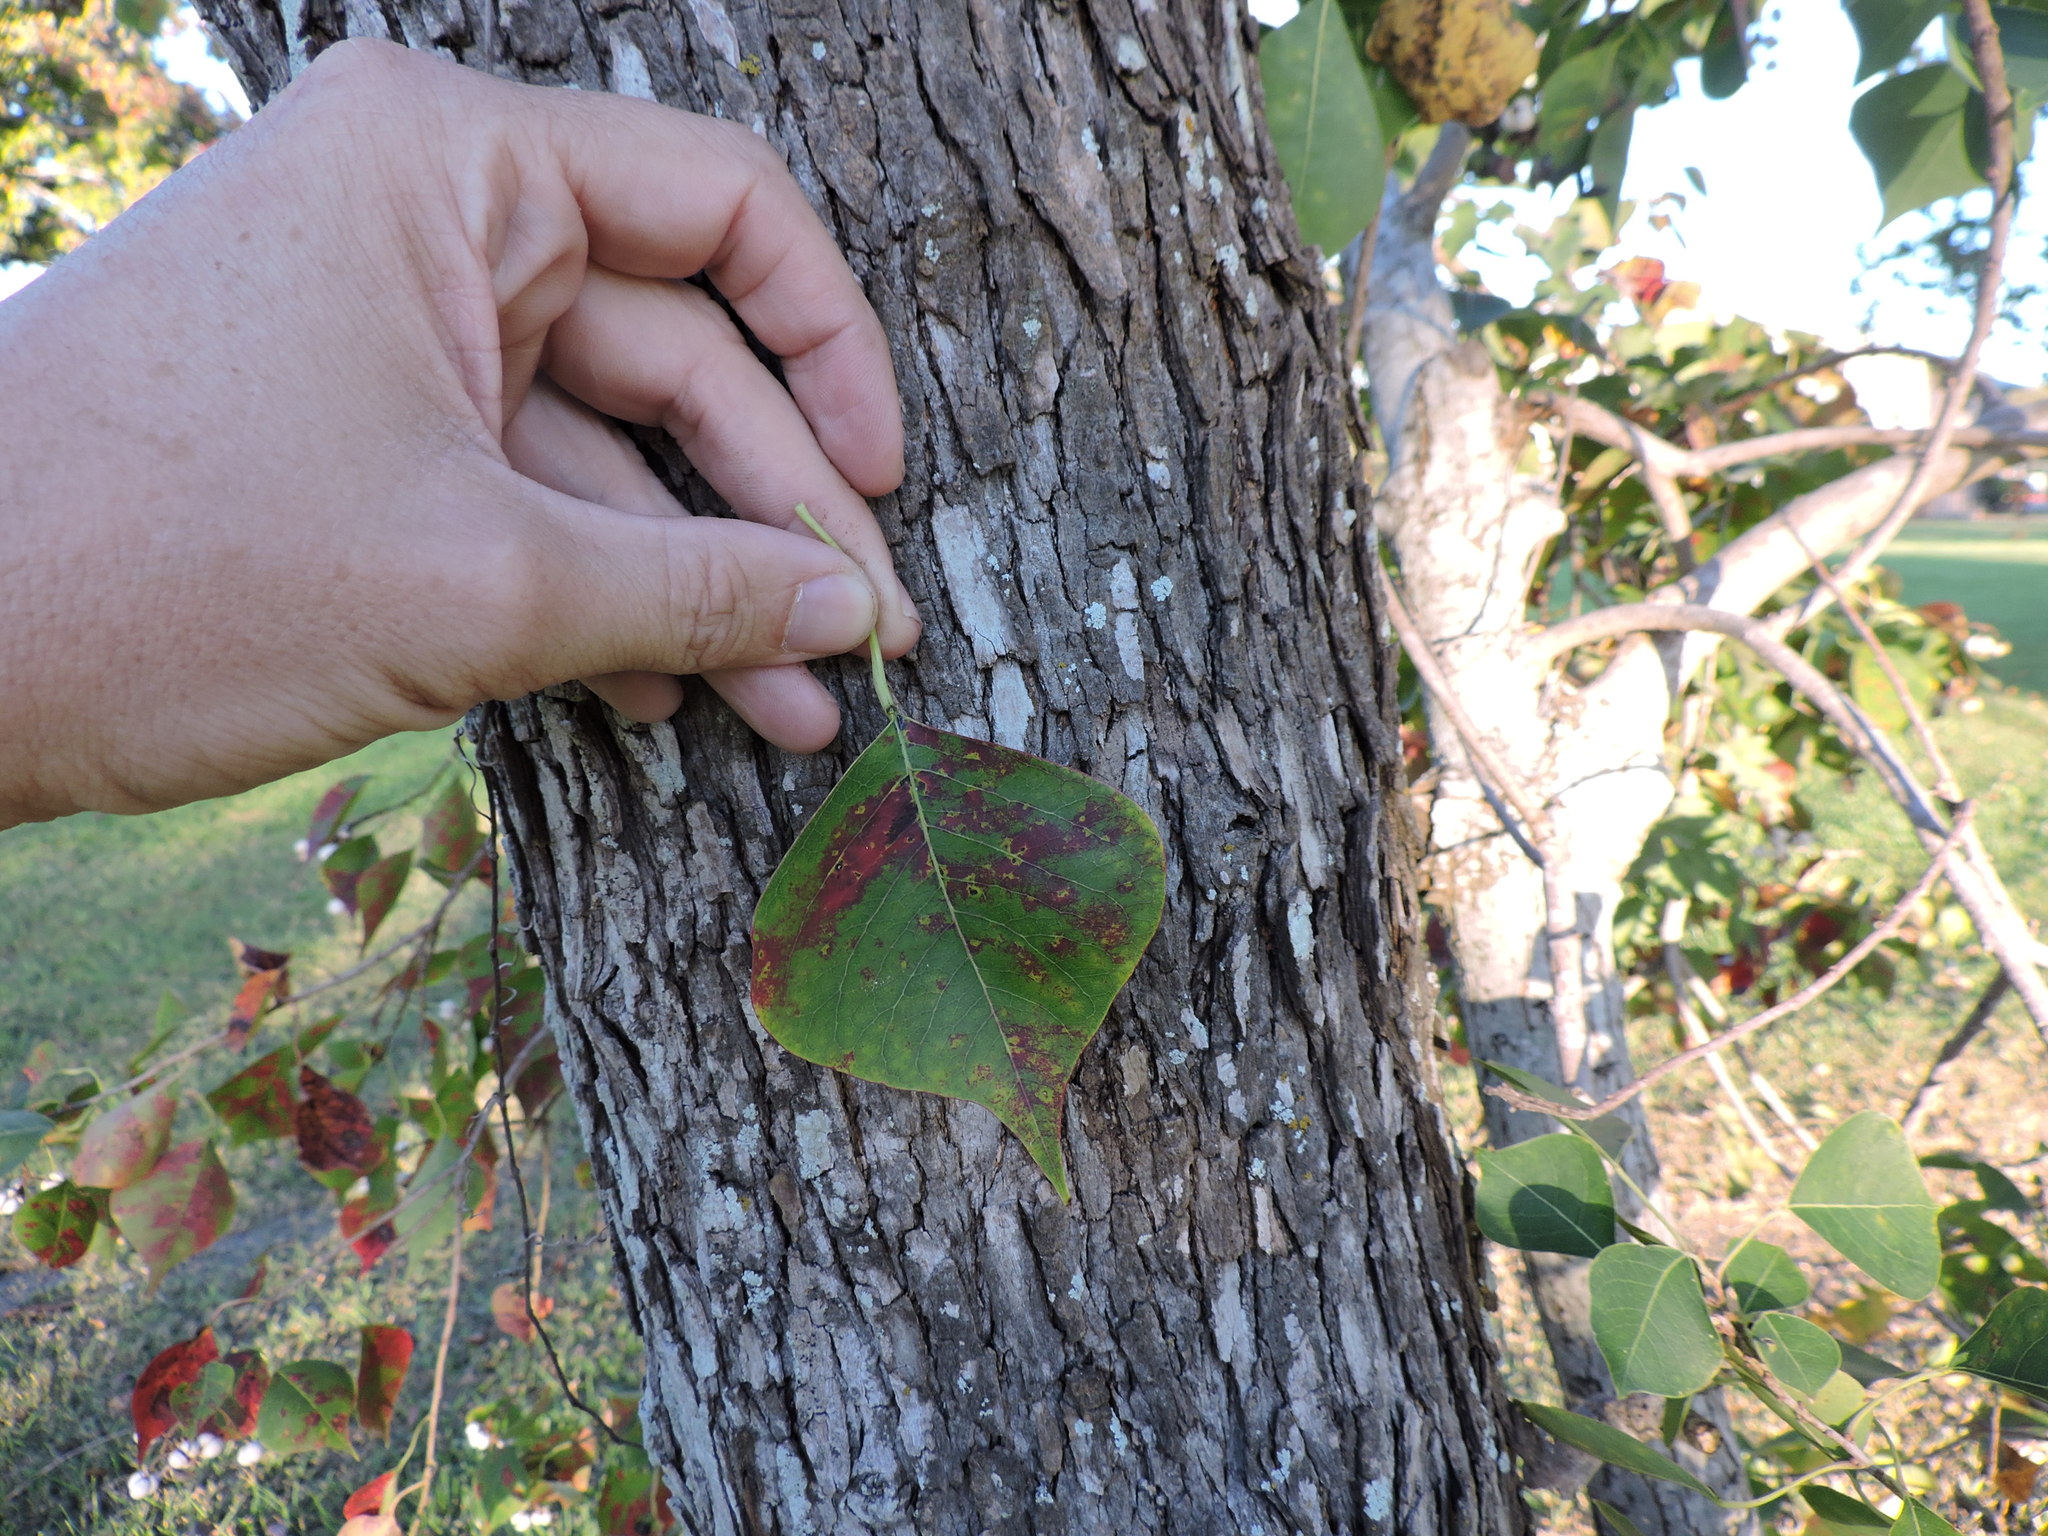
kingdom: Plantae
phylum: Tracheophyta
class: Magnoliopsida
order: Malpighiales
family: Euphorbiaceae
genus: Triadica
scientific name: Triadica sebifera
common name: Chinese tallow
